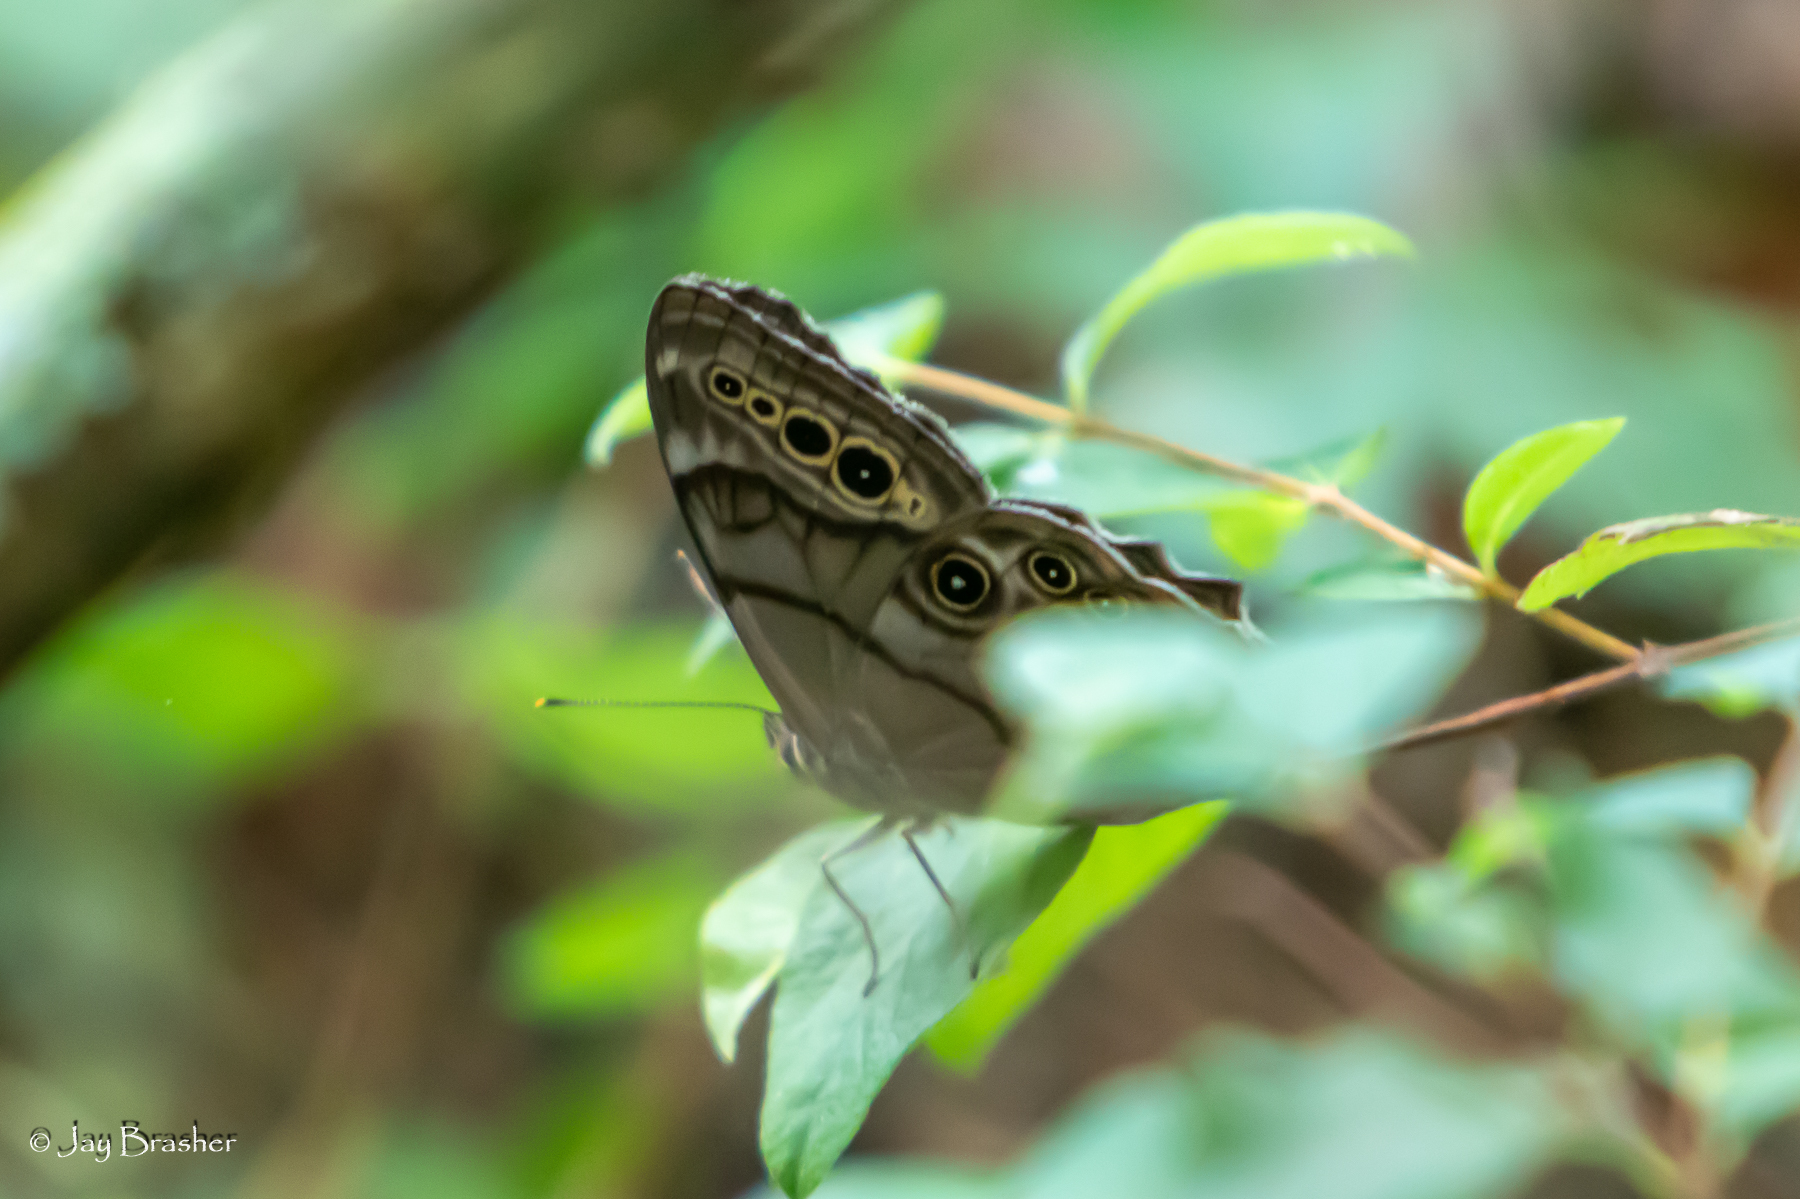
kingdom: Animalia
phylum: Arthropoda
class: Insecta
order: Lepidoptera
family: Nymphalidae
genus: Lethe
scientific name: Lethe anthedon
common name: Northern pearly-eye
